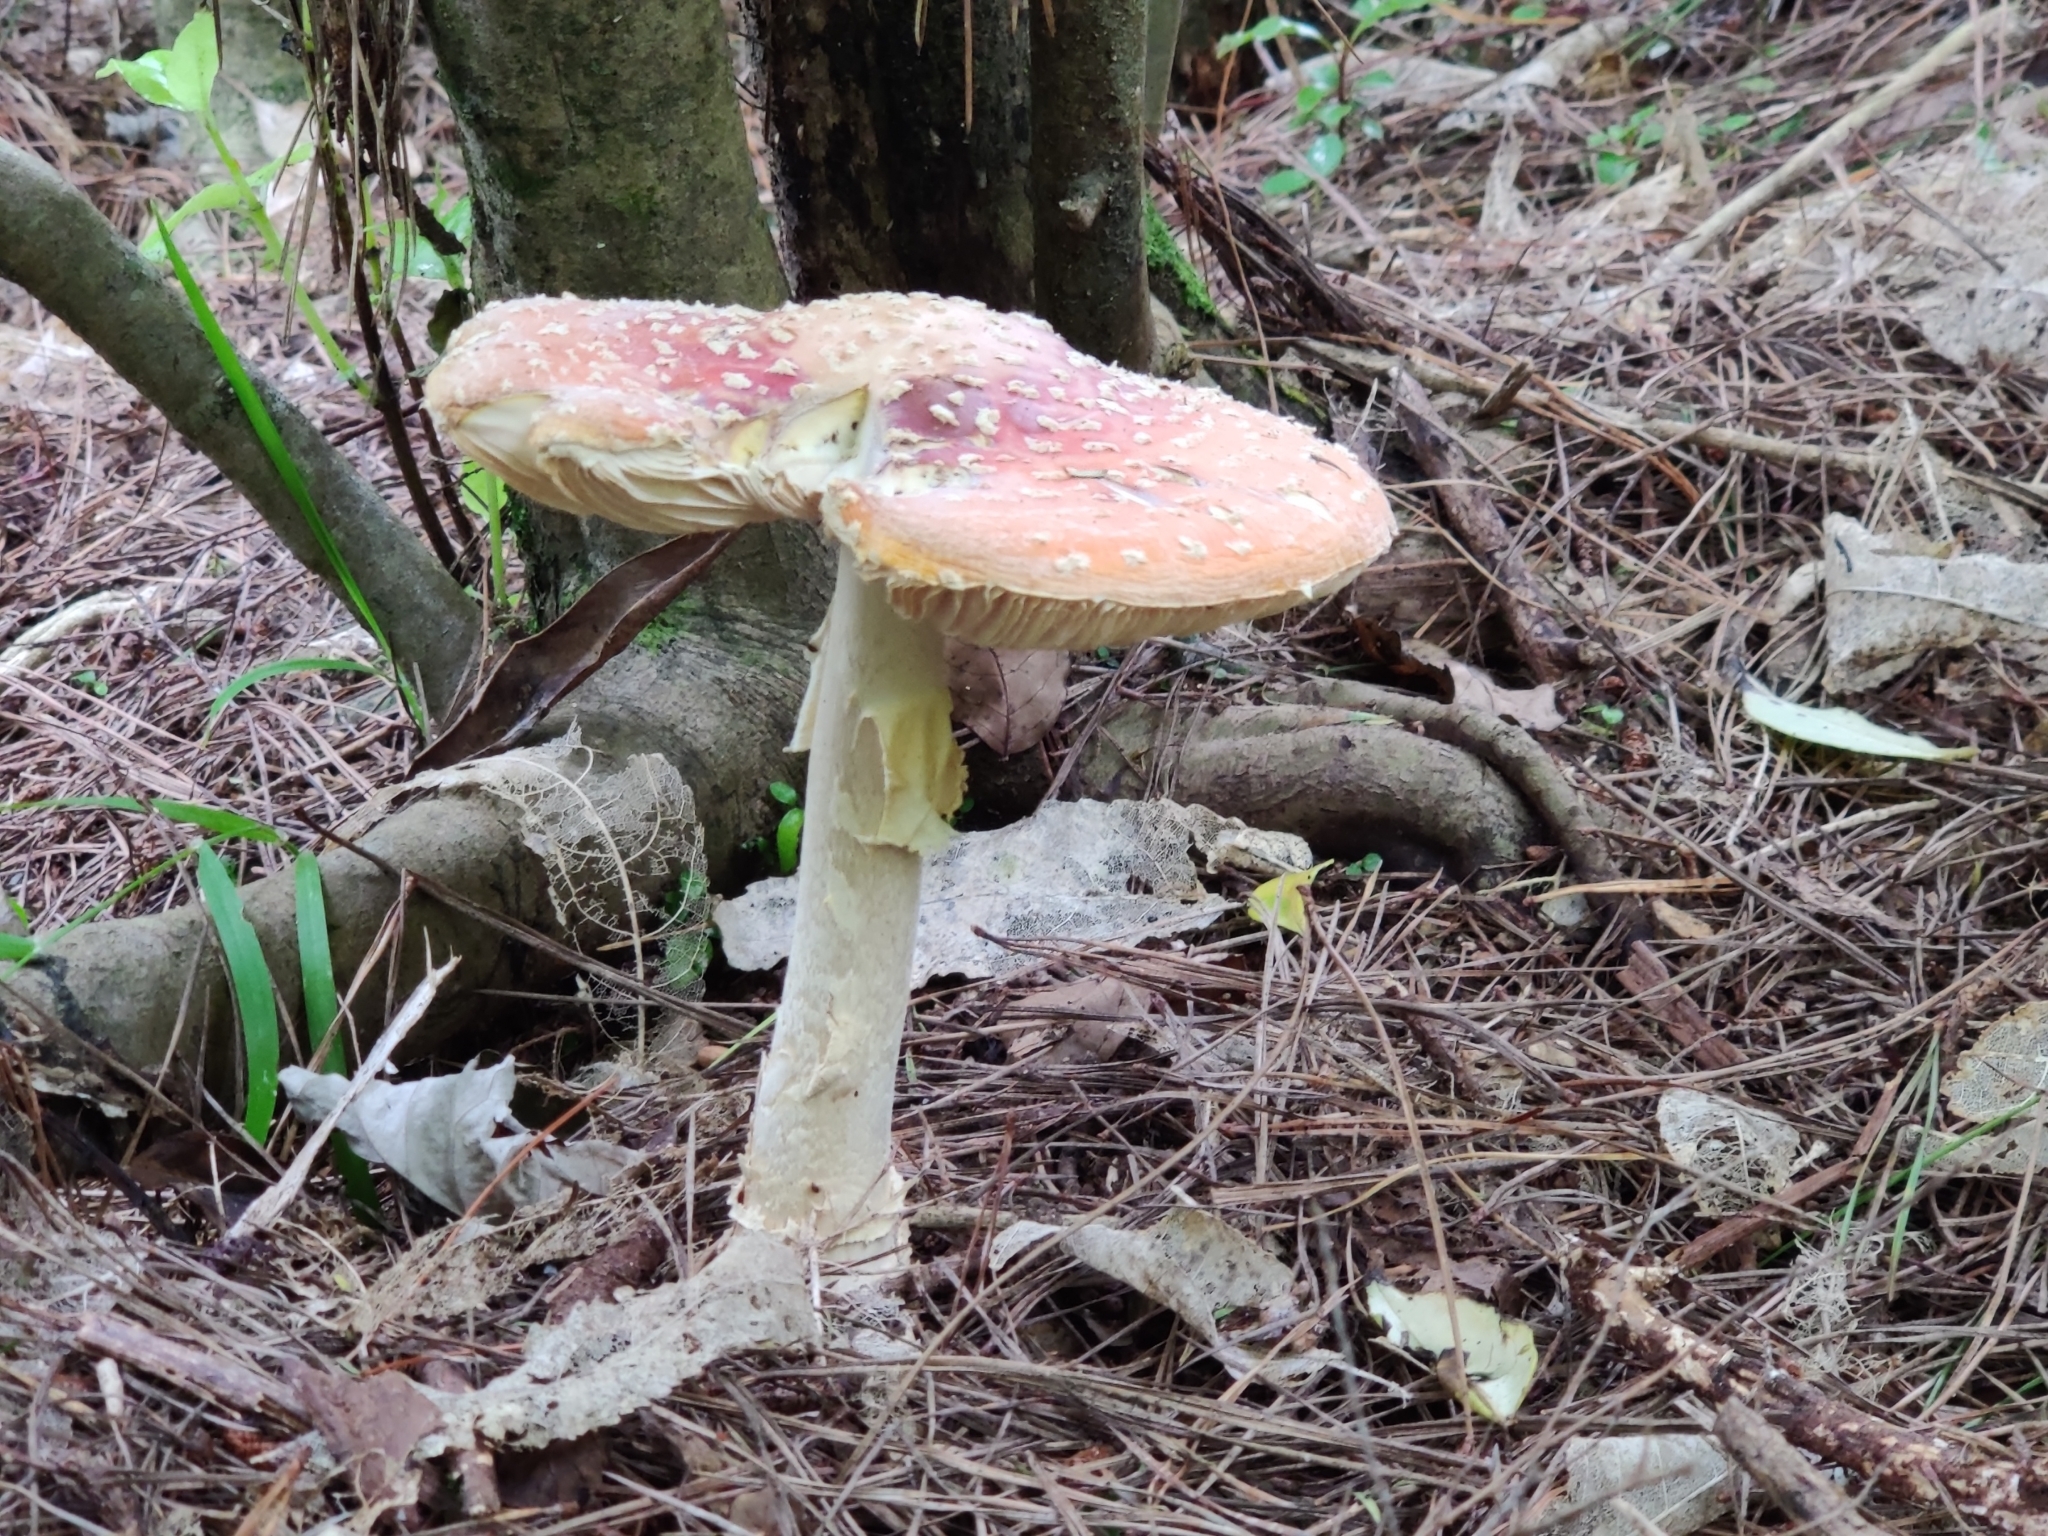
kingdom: Fungi
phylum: Basidiomycota
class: Agaricomycetes
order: Agaricales
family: Amanitaceae
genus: Amanita
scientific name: Amanita muscaria
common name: Fly agaric
